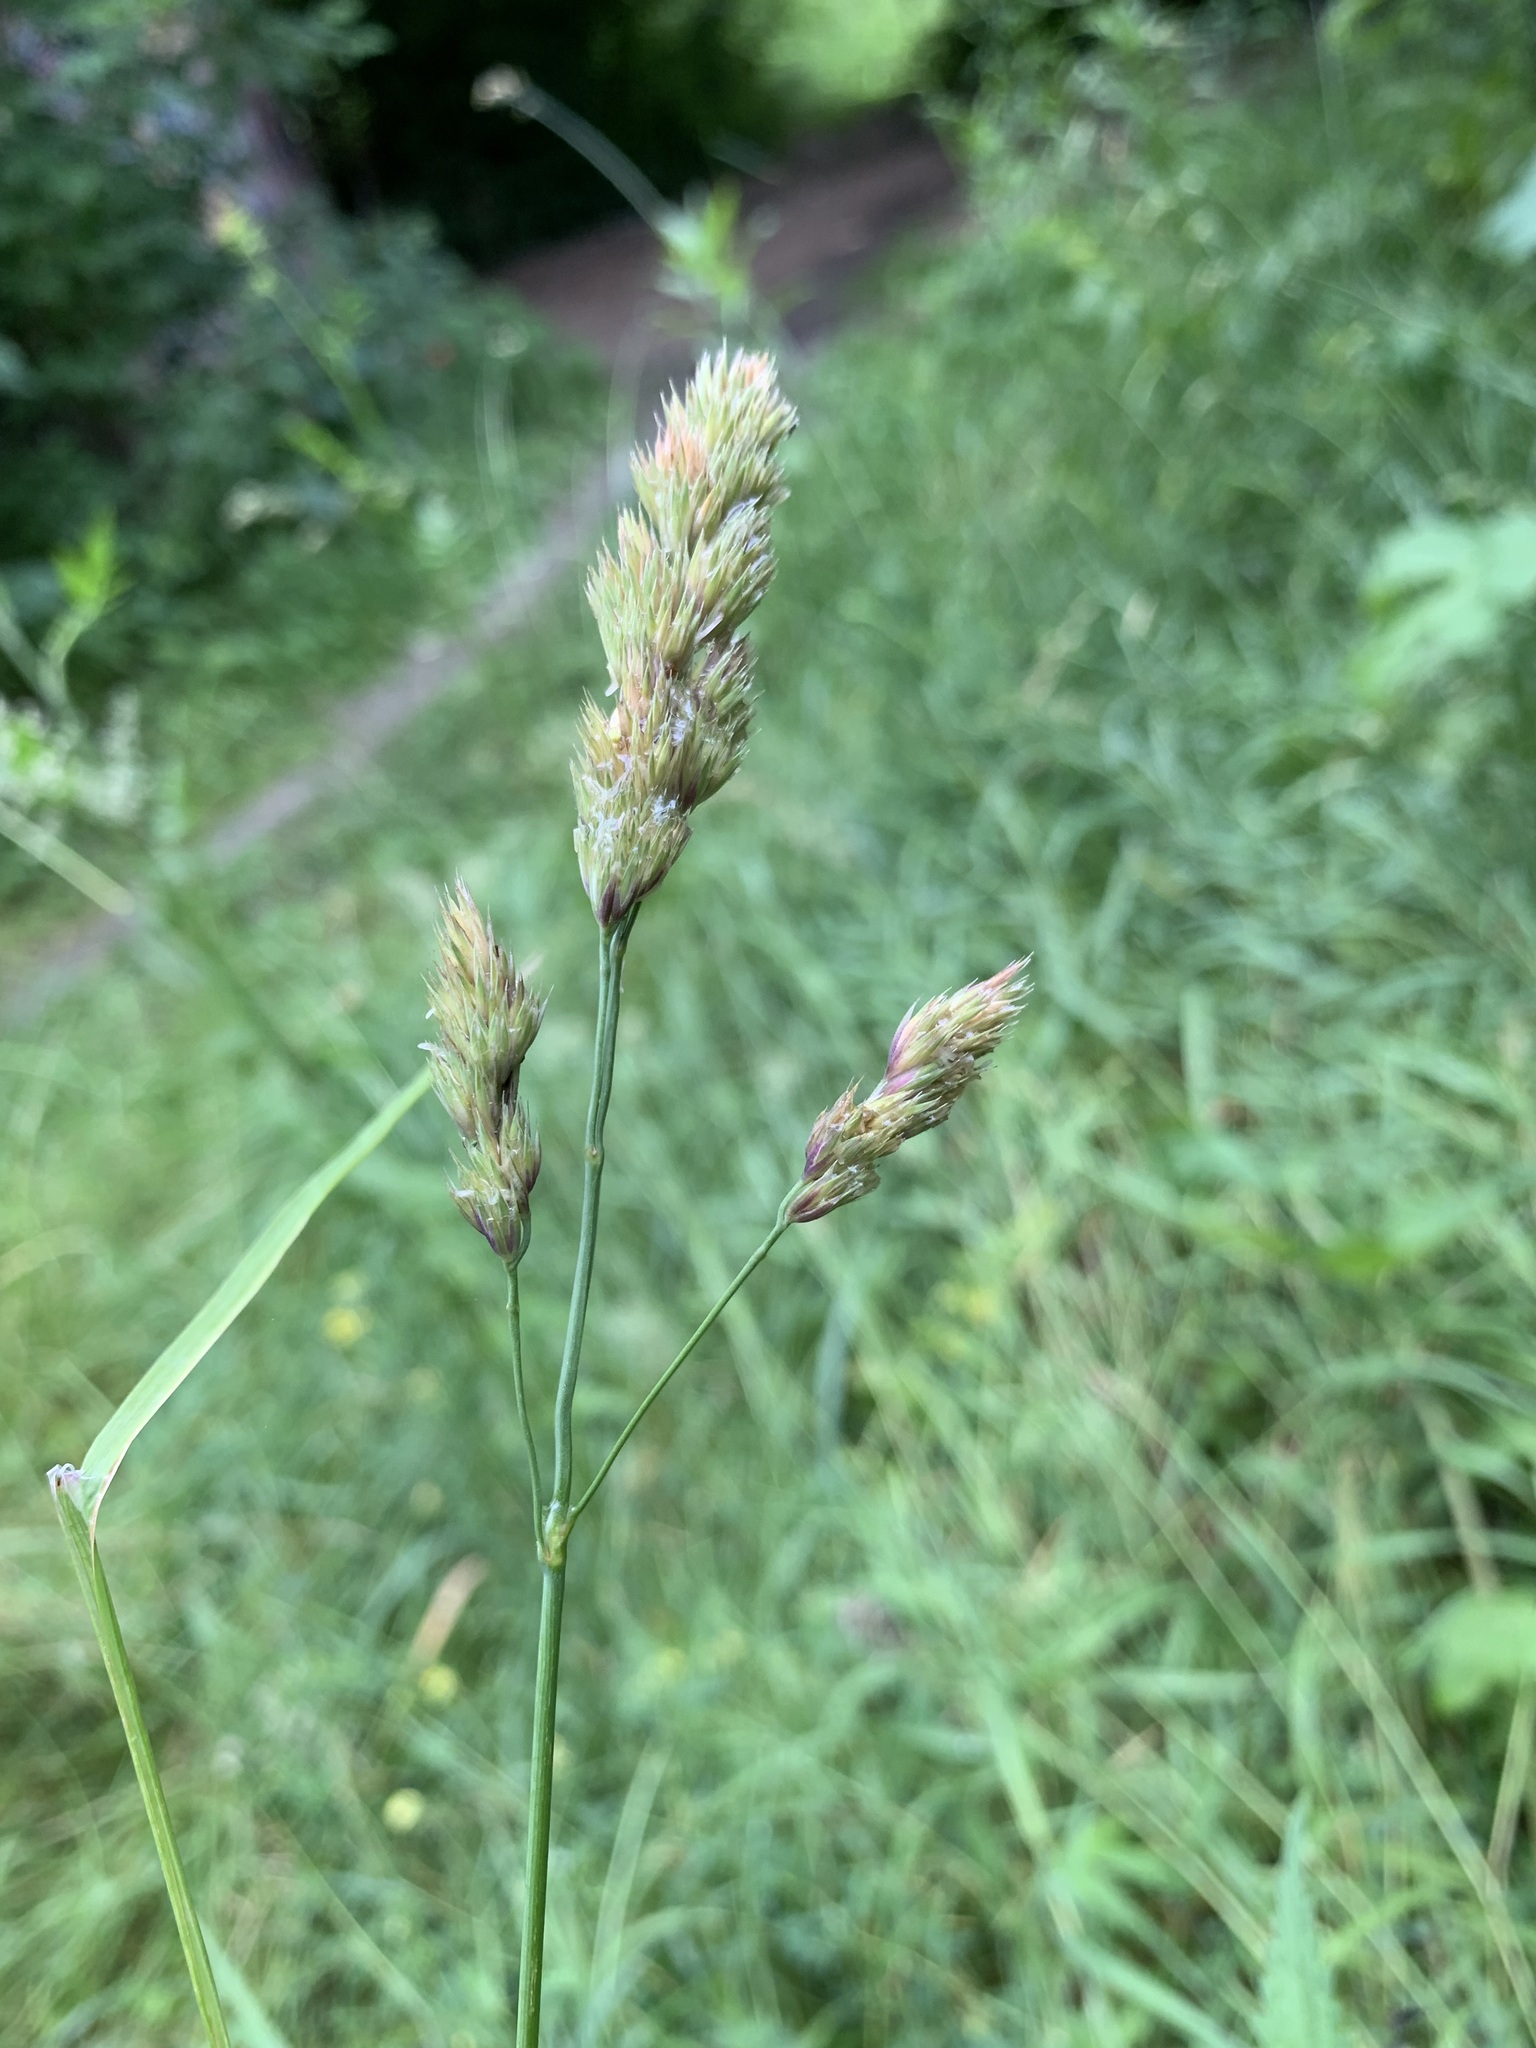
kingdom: Plantae
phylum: Tracheophyta
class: Liliopsida
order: Poales
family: Poaceae
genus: Dactylis
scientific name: Dactylis glomerata
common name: Orchardgrass
